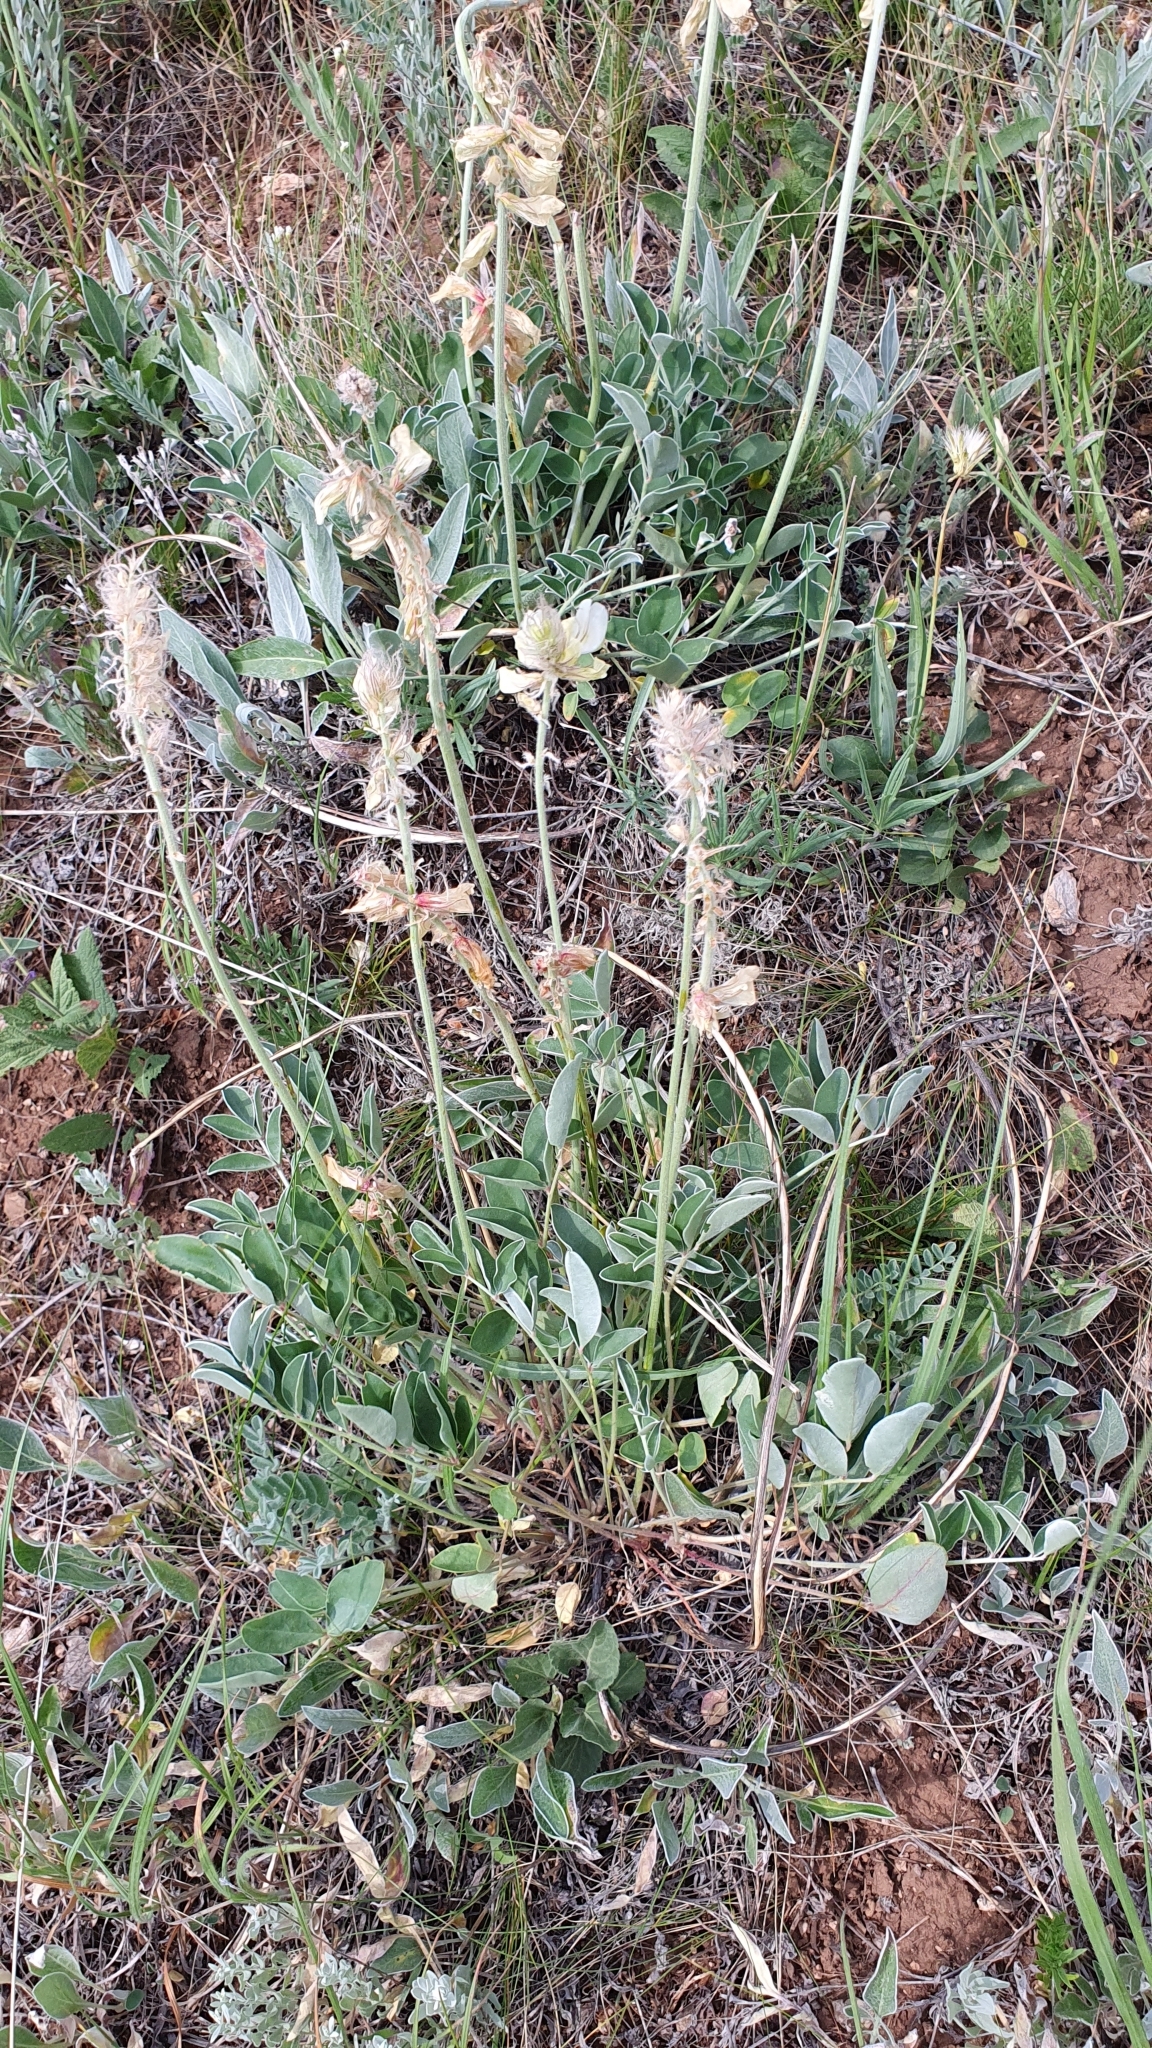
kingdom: Plantae
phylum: Tracheophyta
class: Magnoliopsida
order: Fabales
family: Fabaceae
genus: Hedysarum
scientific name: Hedysarum grandiflorum
